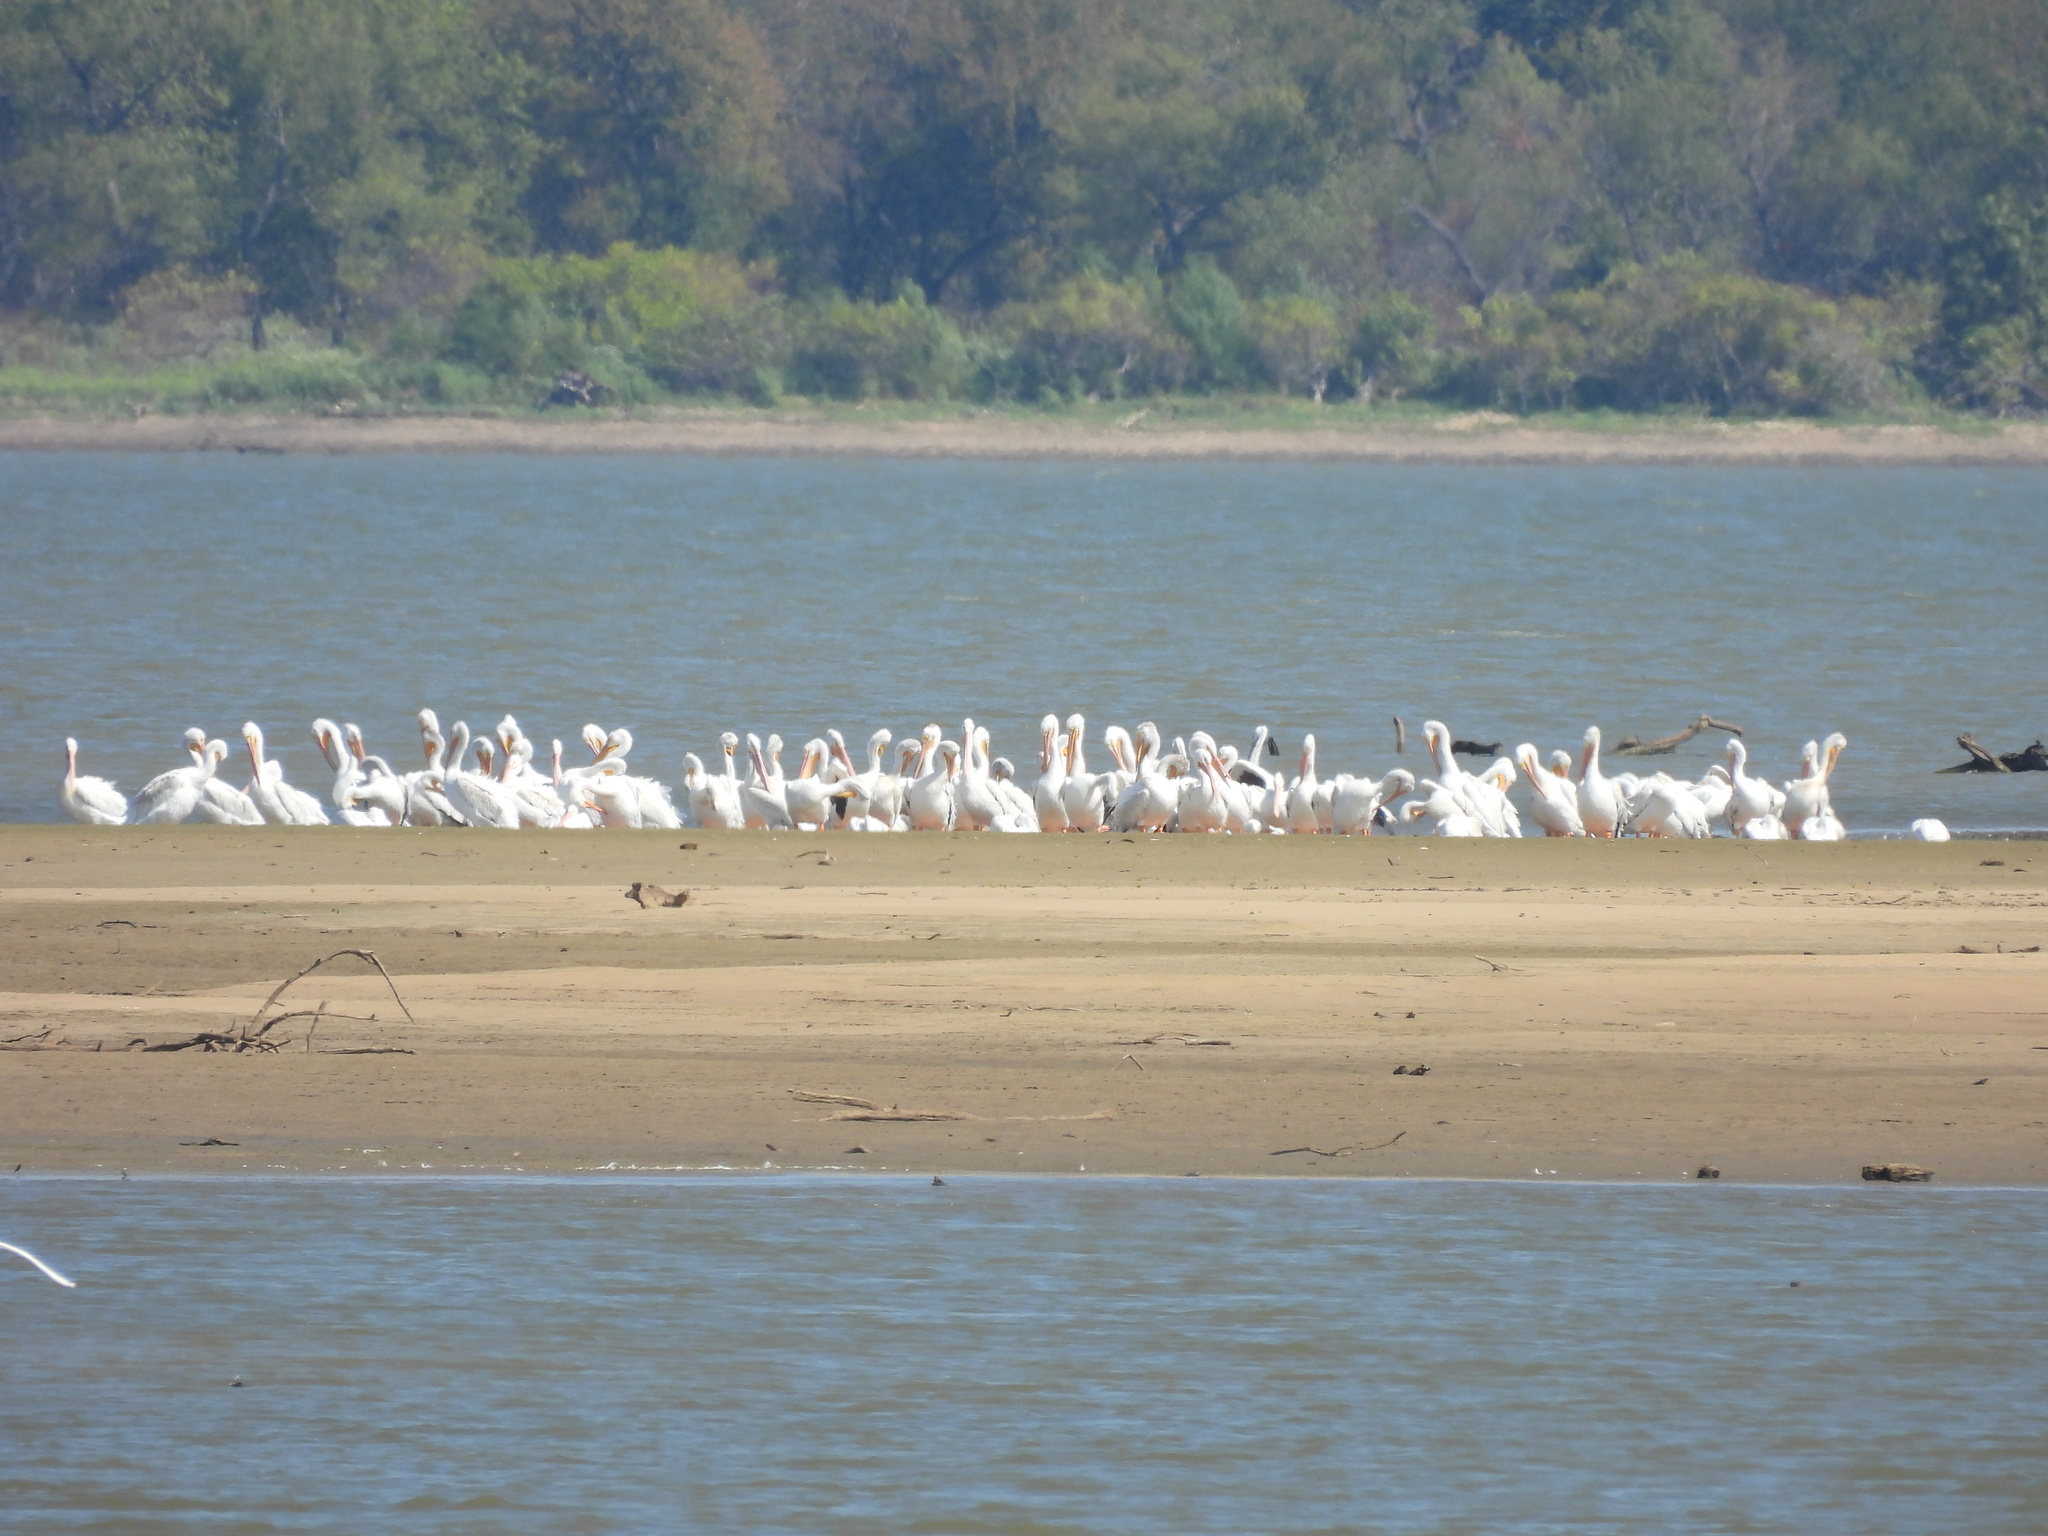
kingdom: Animalia
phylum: Chordata
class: Aves
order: Pelecaniformes
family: Pelecanidae
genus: Pelecanus
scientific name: Pelecanus erythrorhynchos
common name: American white pelican
